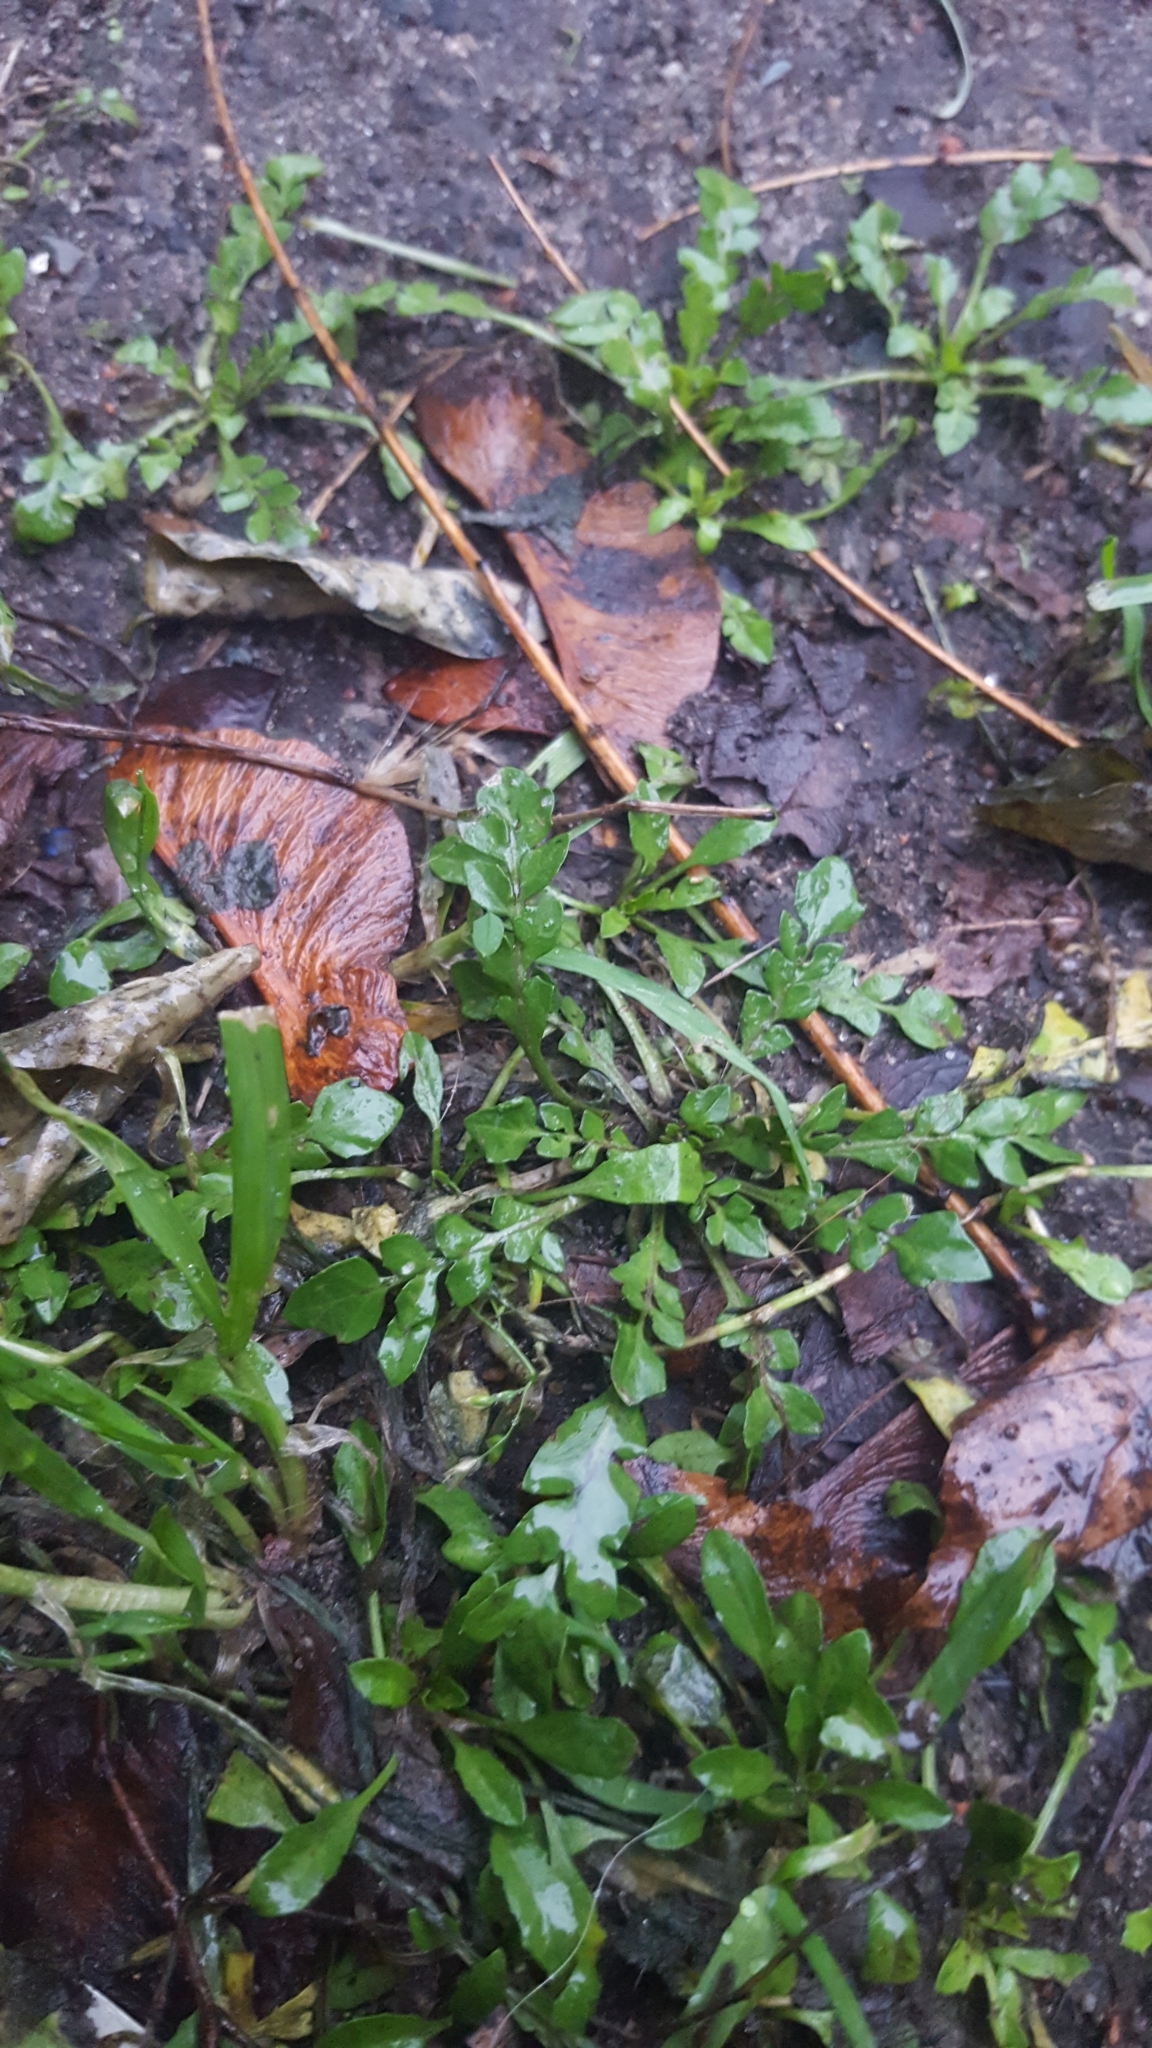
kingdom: Plantae
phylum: Tracheophyta
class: Magnoliopsida
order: Brassicales
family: Brassicaceae
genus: Capsella
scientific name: Capsella bursa-pastoris
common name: Shepherd's purse
